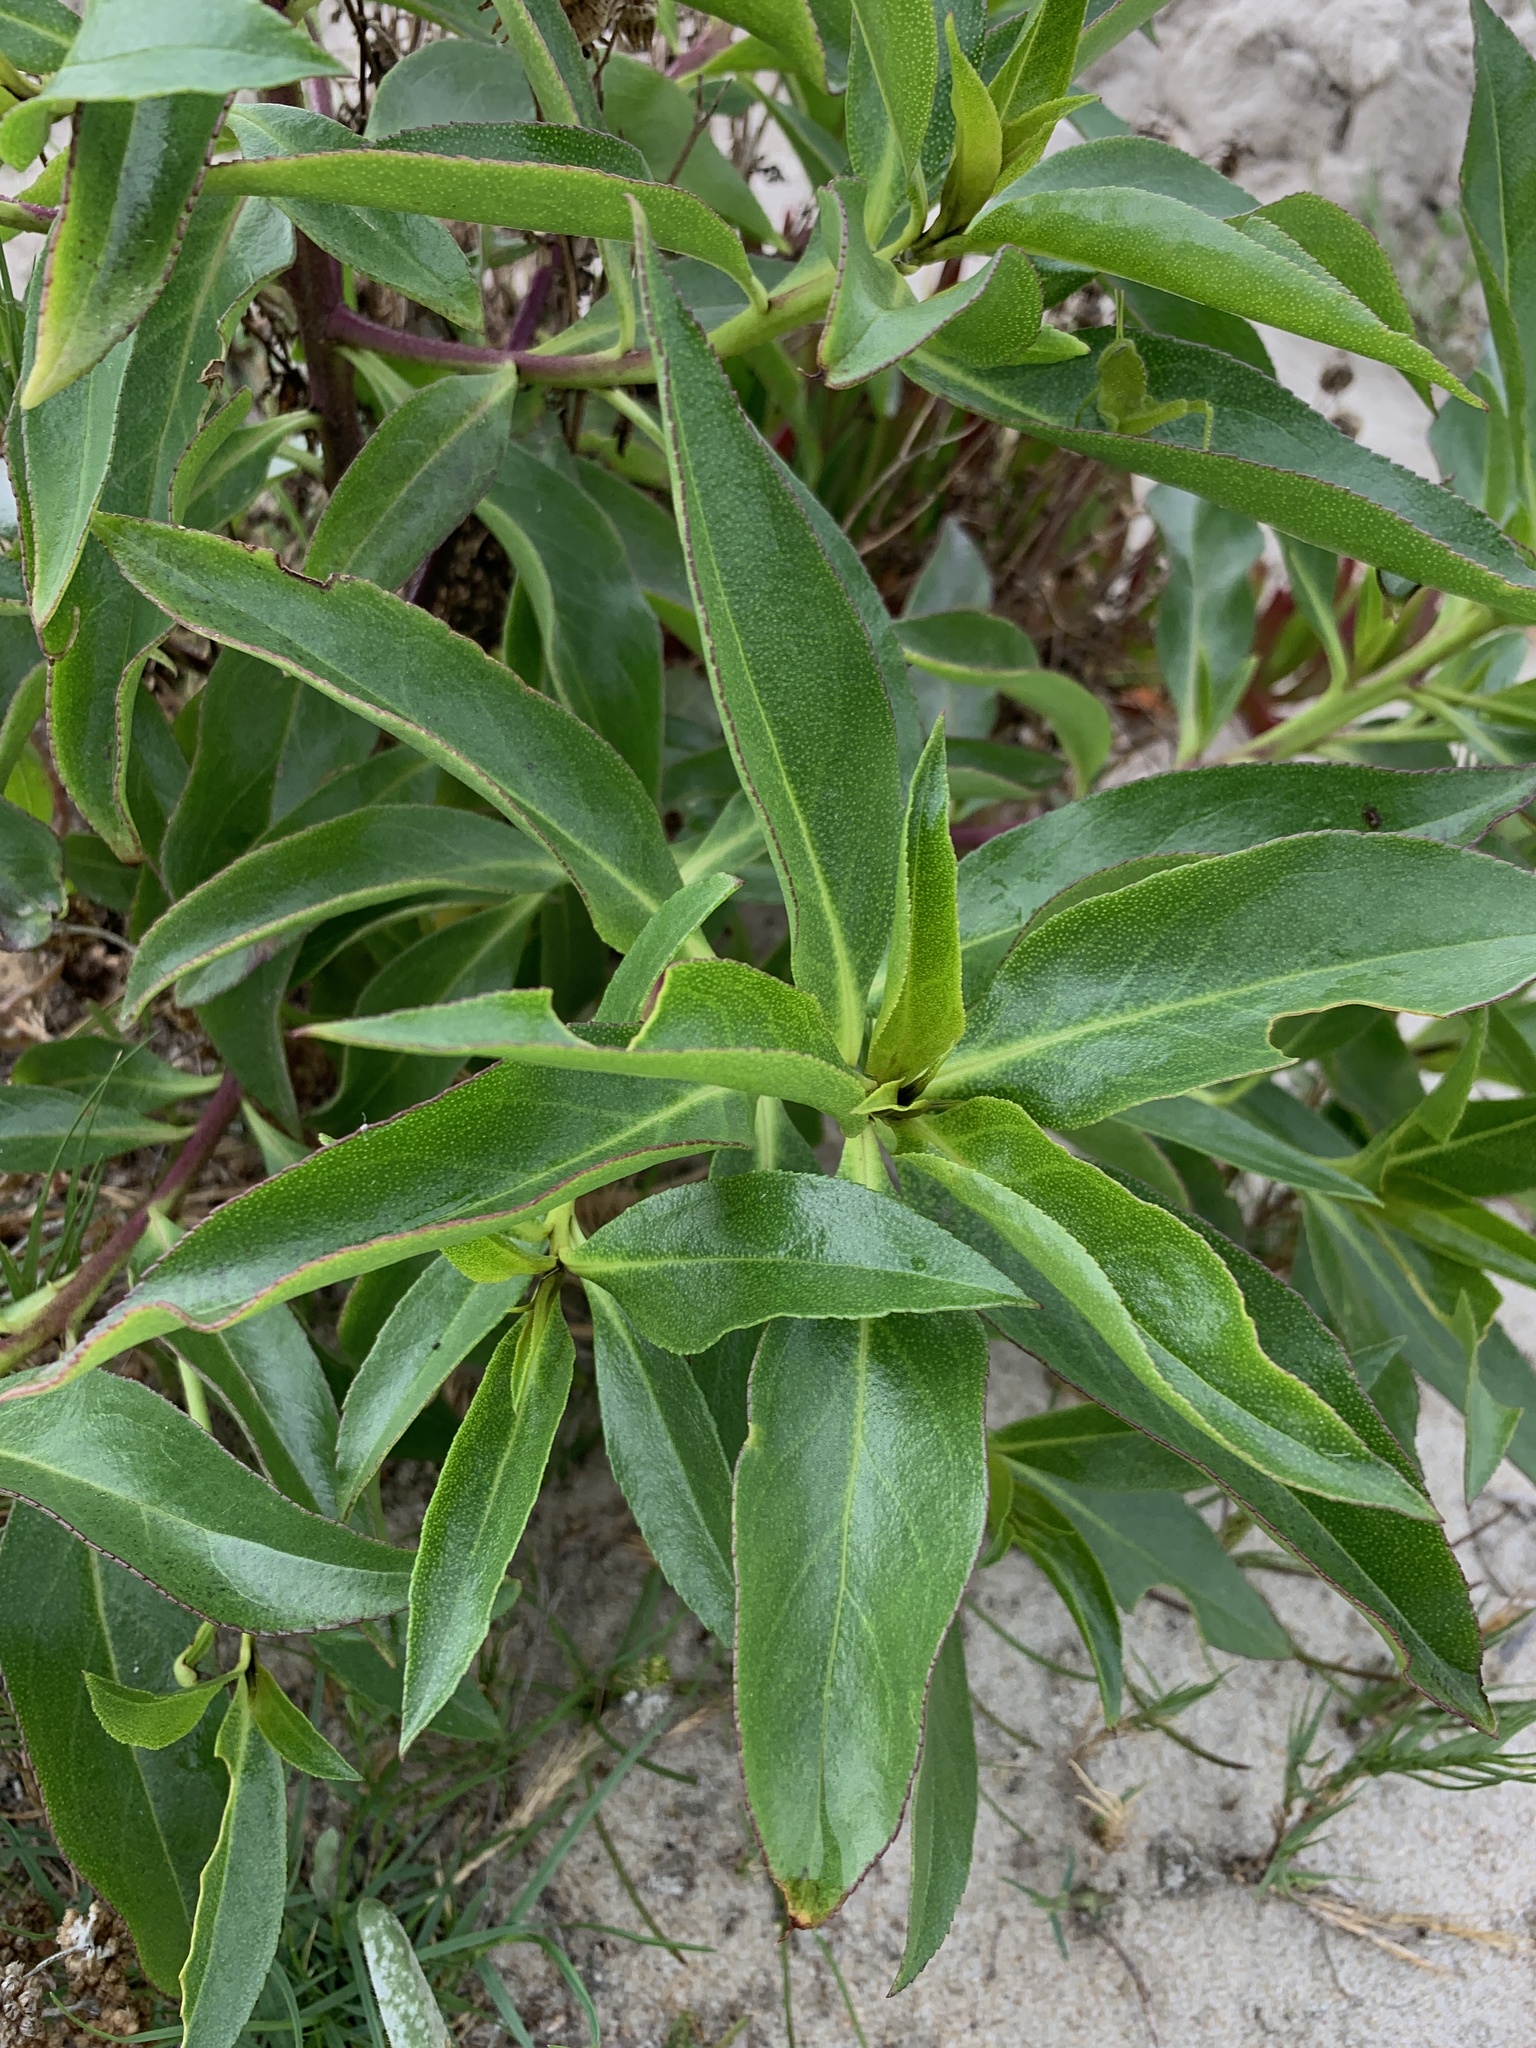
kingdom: Plantae
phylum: Tracheophyta
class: Magnoliopsida
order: Lamiales
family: Scrophulariaceae
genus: Myoporum
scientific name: Myoporum laetum
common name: Ngaio tree
